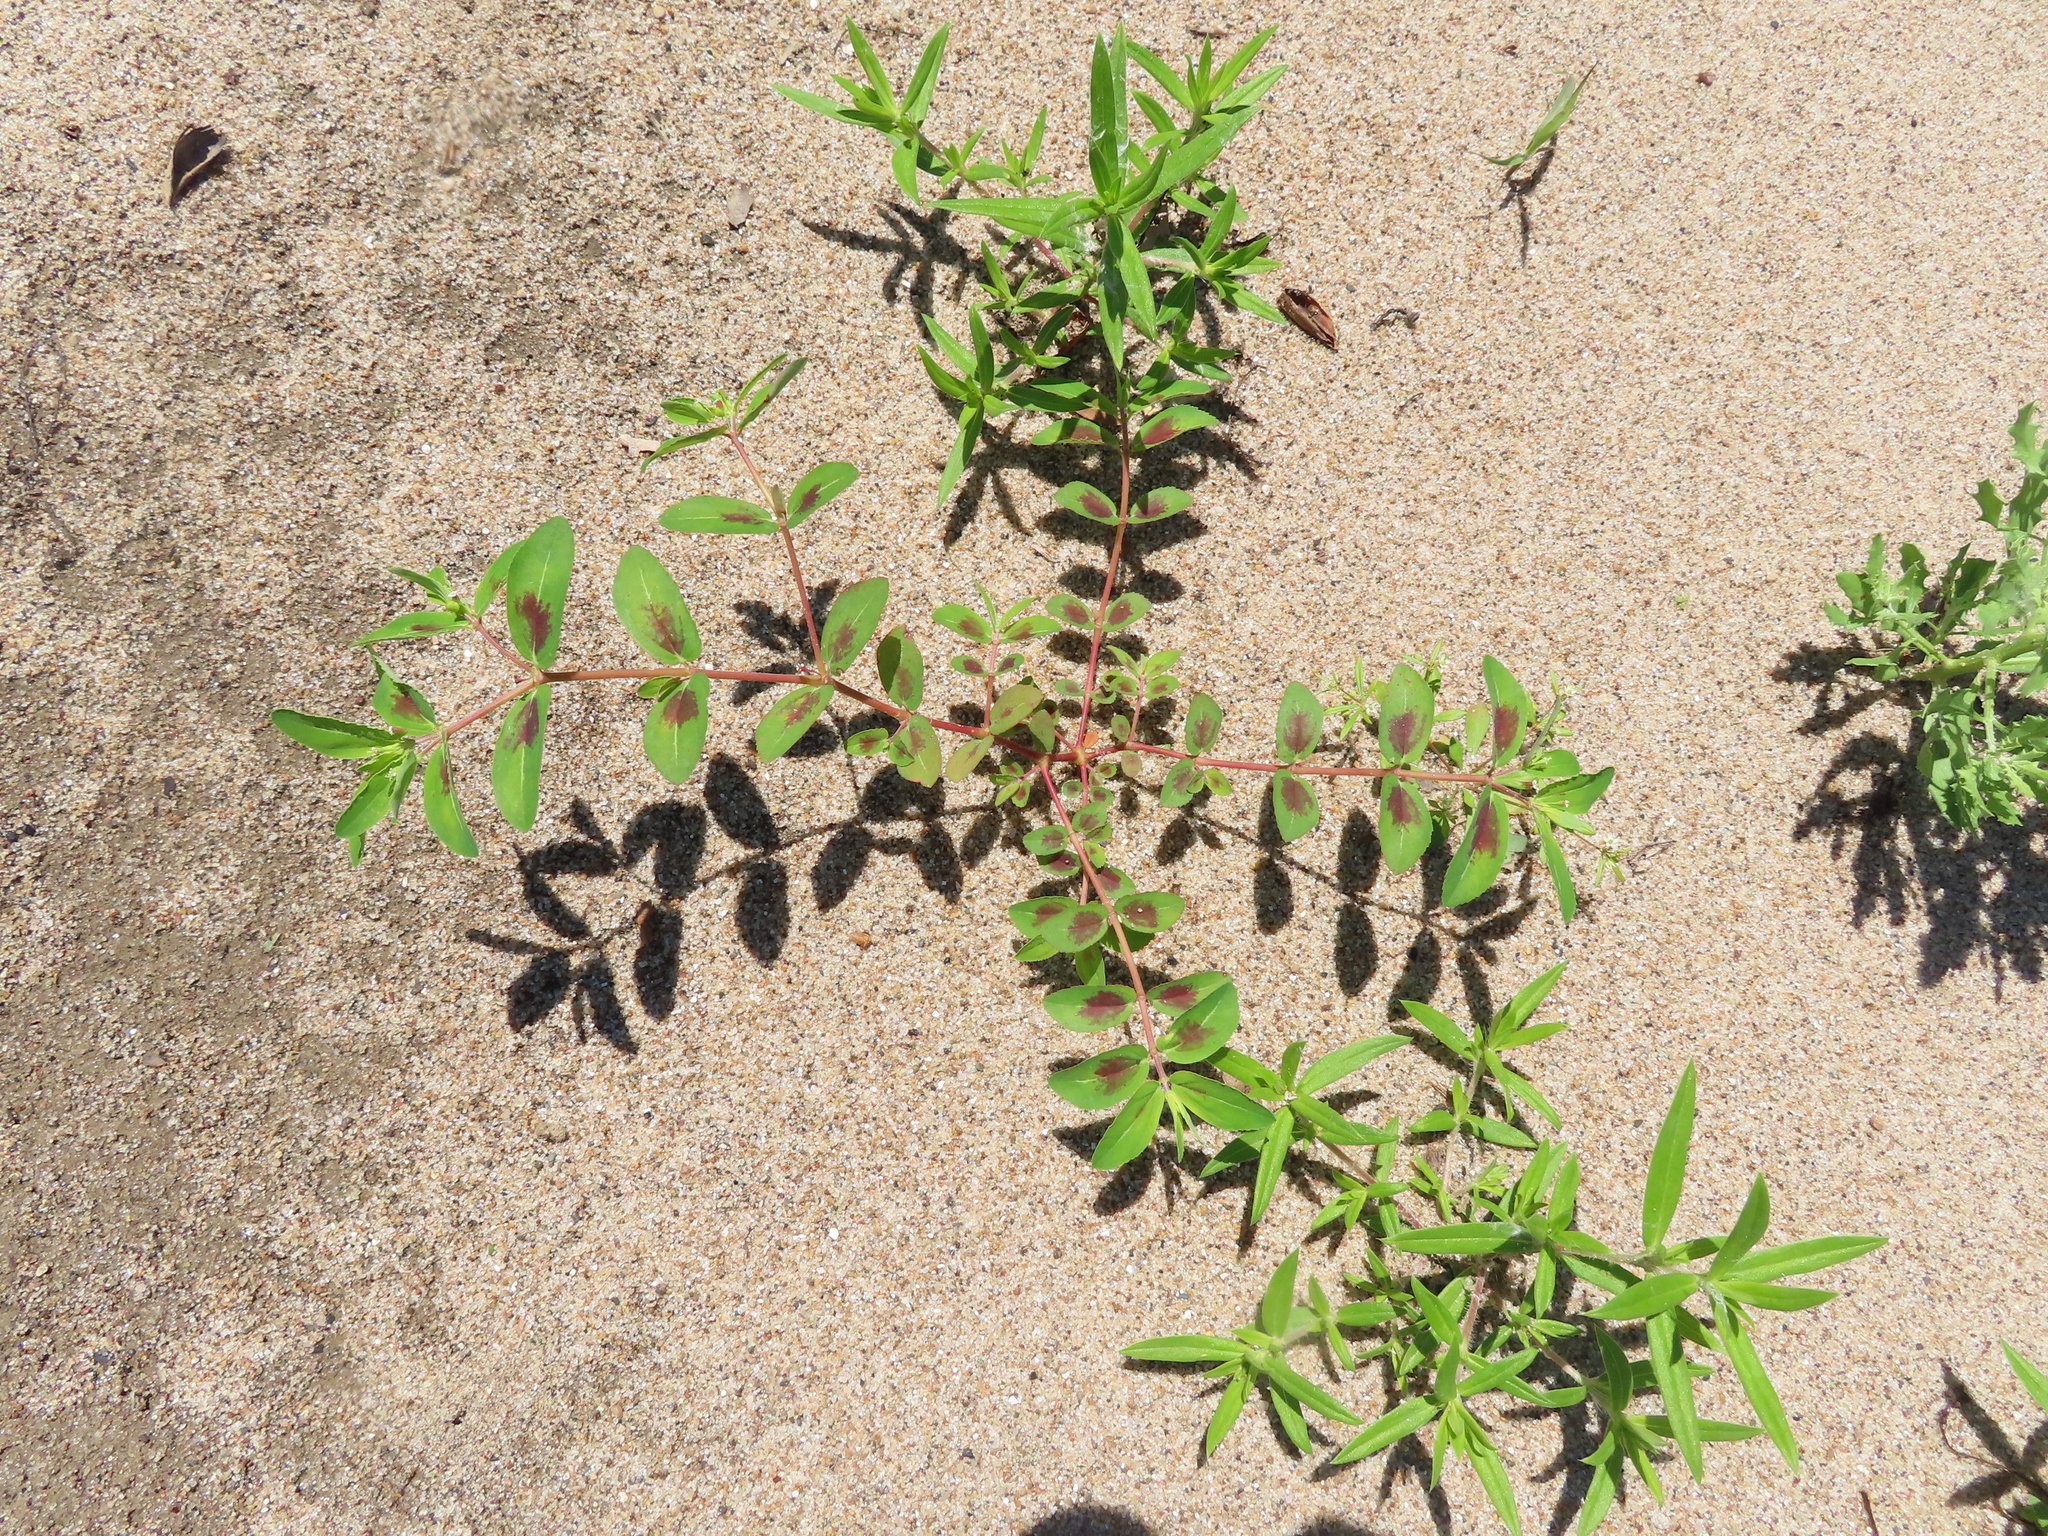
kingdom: Plantae
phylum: Tracheophyta
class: Magnoliopsida
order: Malpighiales
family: Euphorbiaceae
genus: Euphorbia
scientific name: Euphorbia nutans
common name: Eyebane
